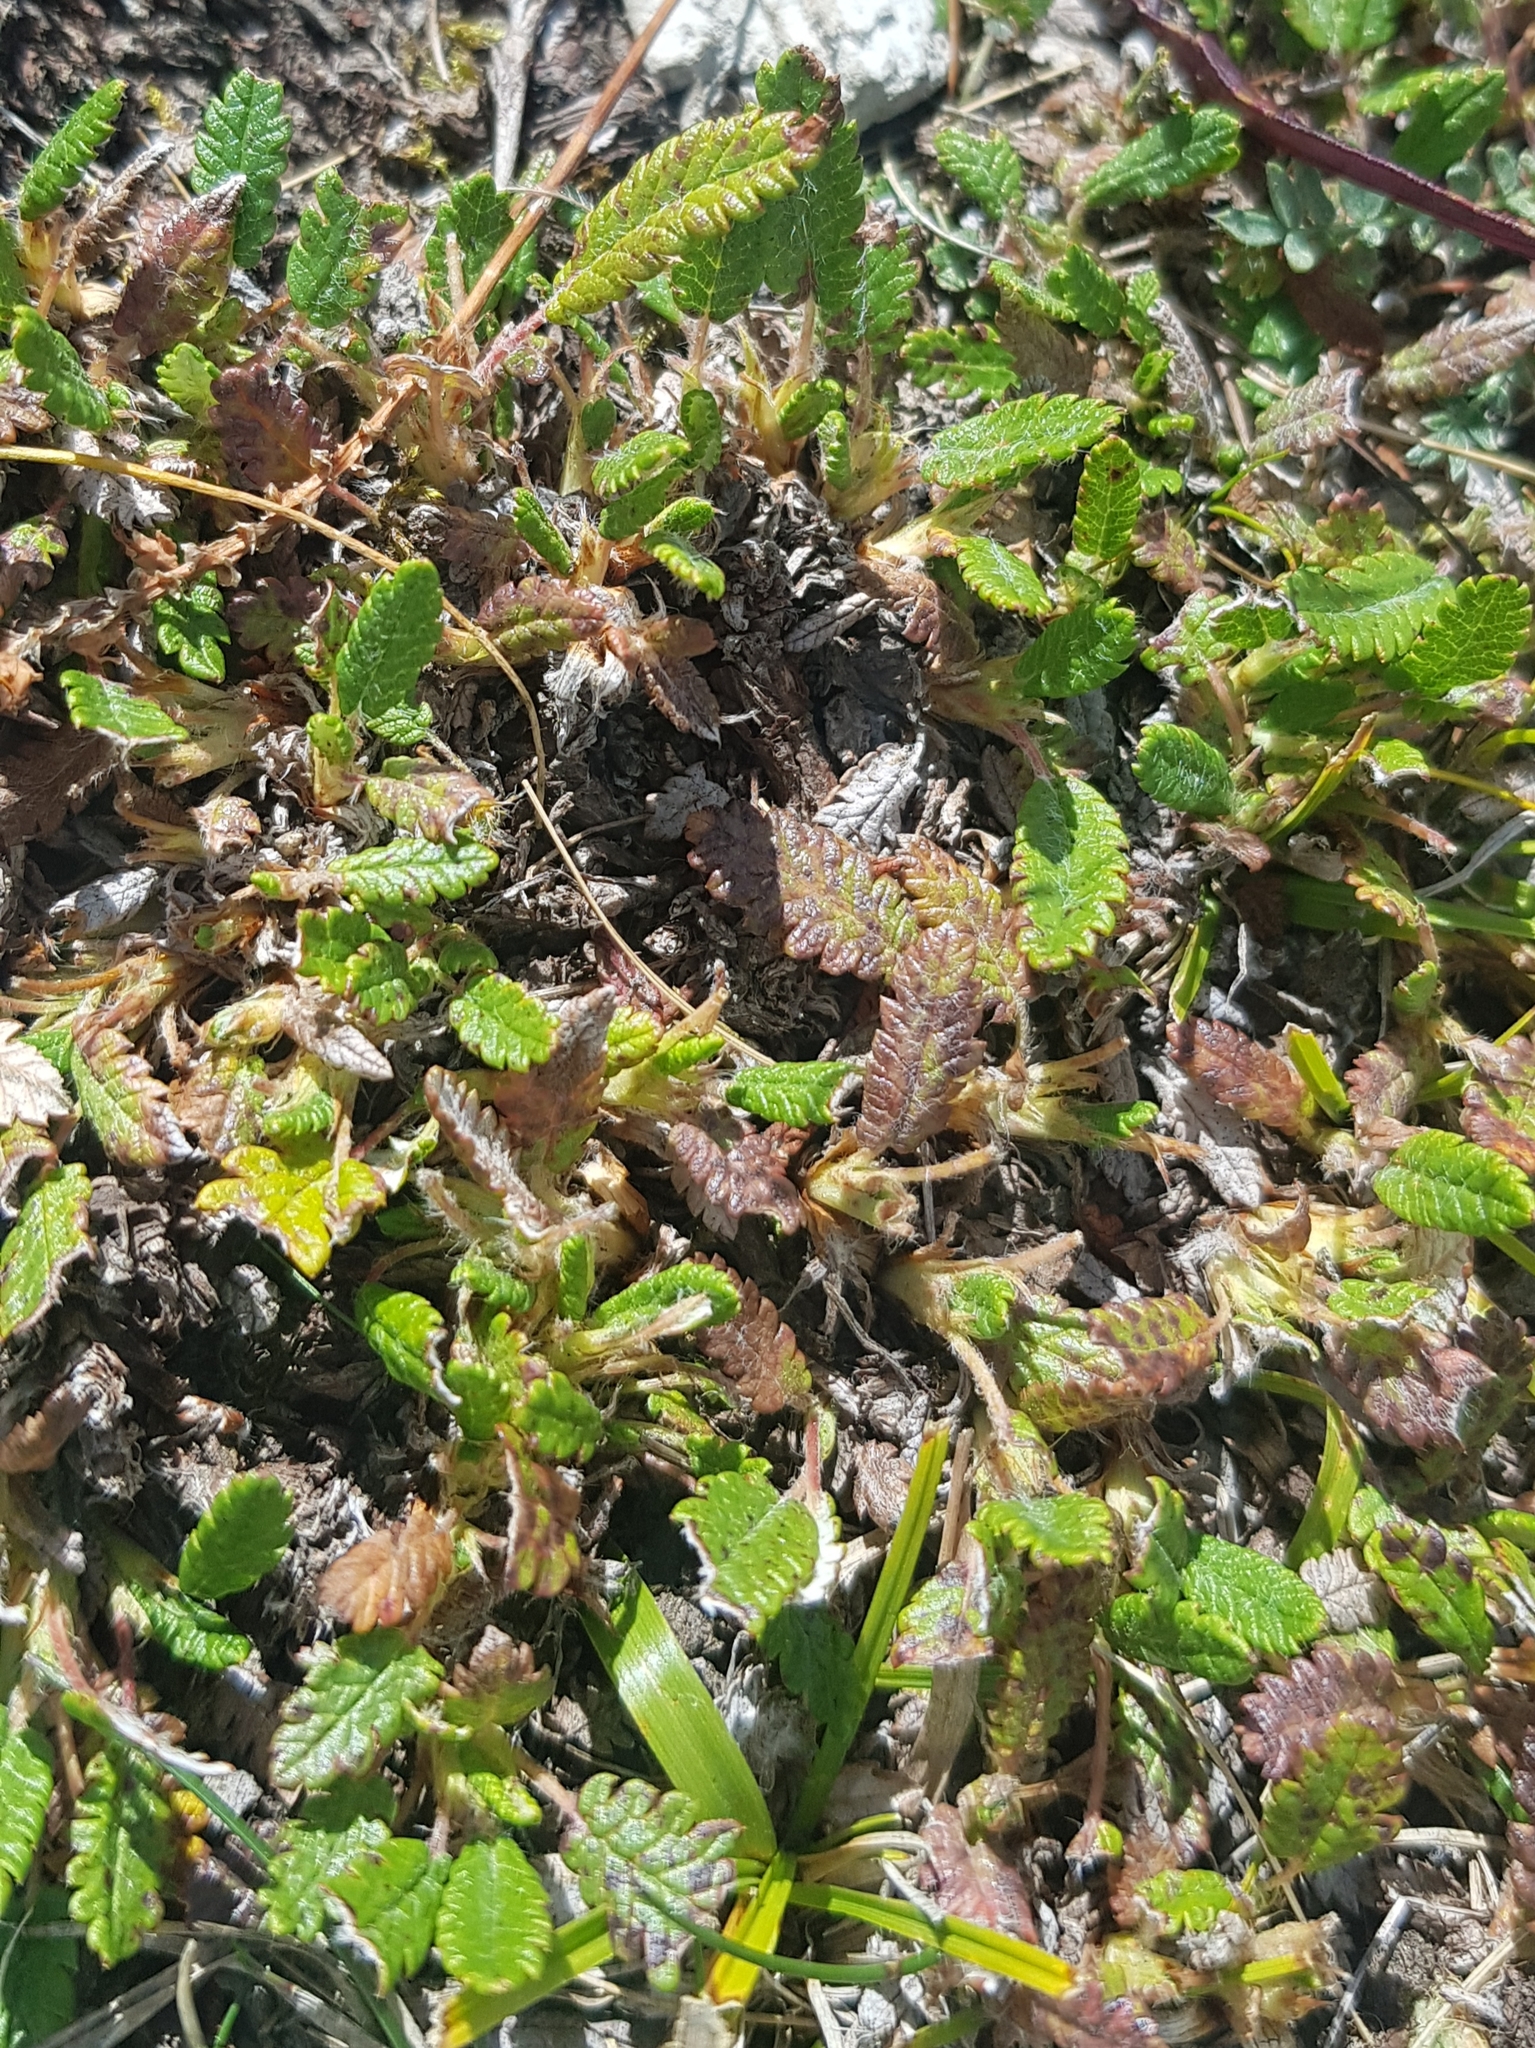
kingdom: Plantae
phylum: Tracheophyta
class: Magnoliopsida
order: Rosales
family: Rosaceae
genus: Dryas
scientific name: Dryas octopetala
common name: Eight-petal mountain-avens
